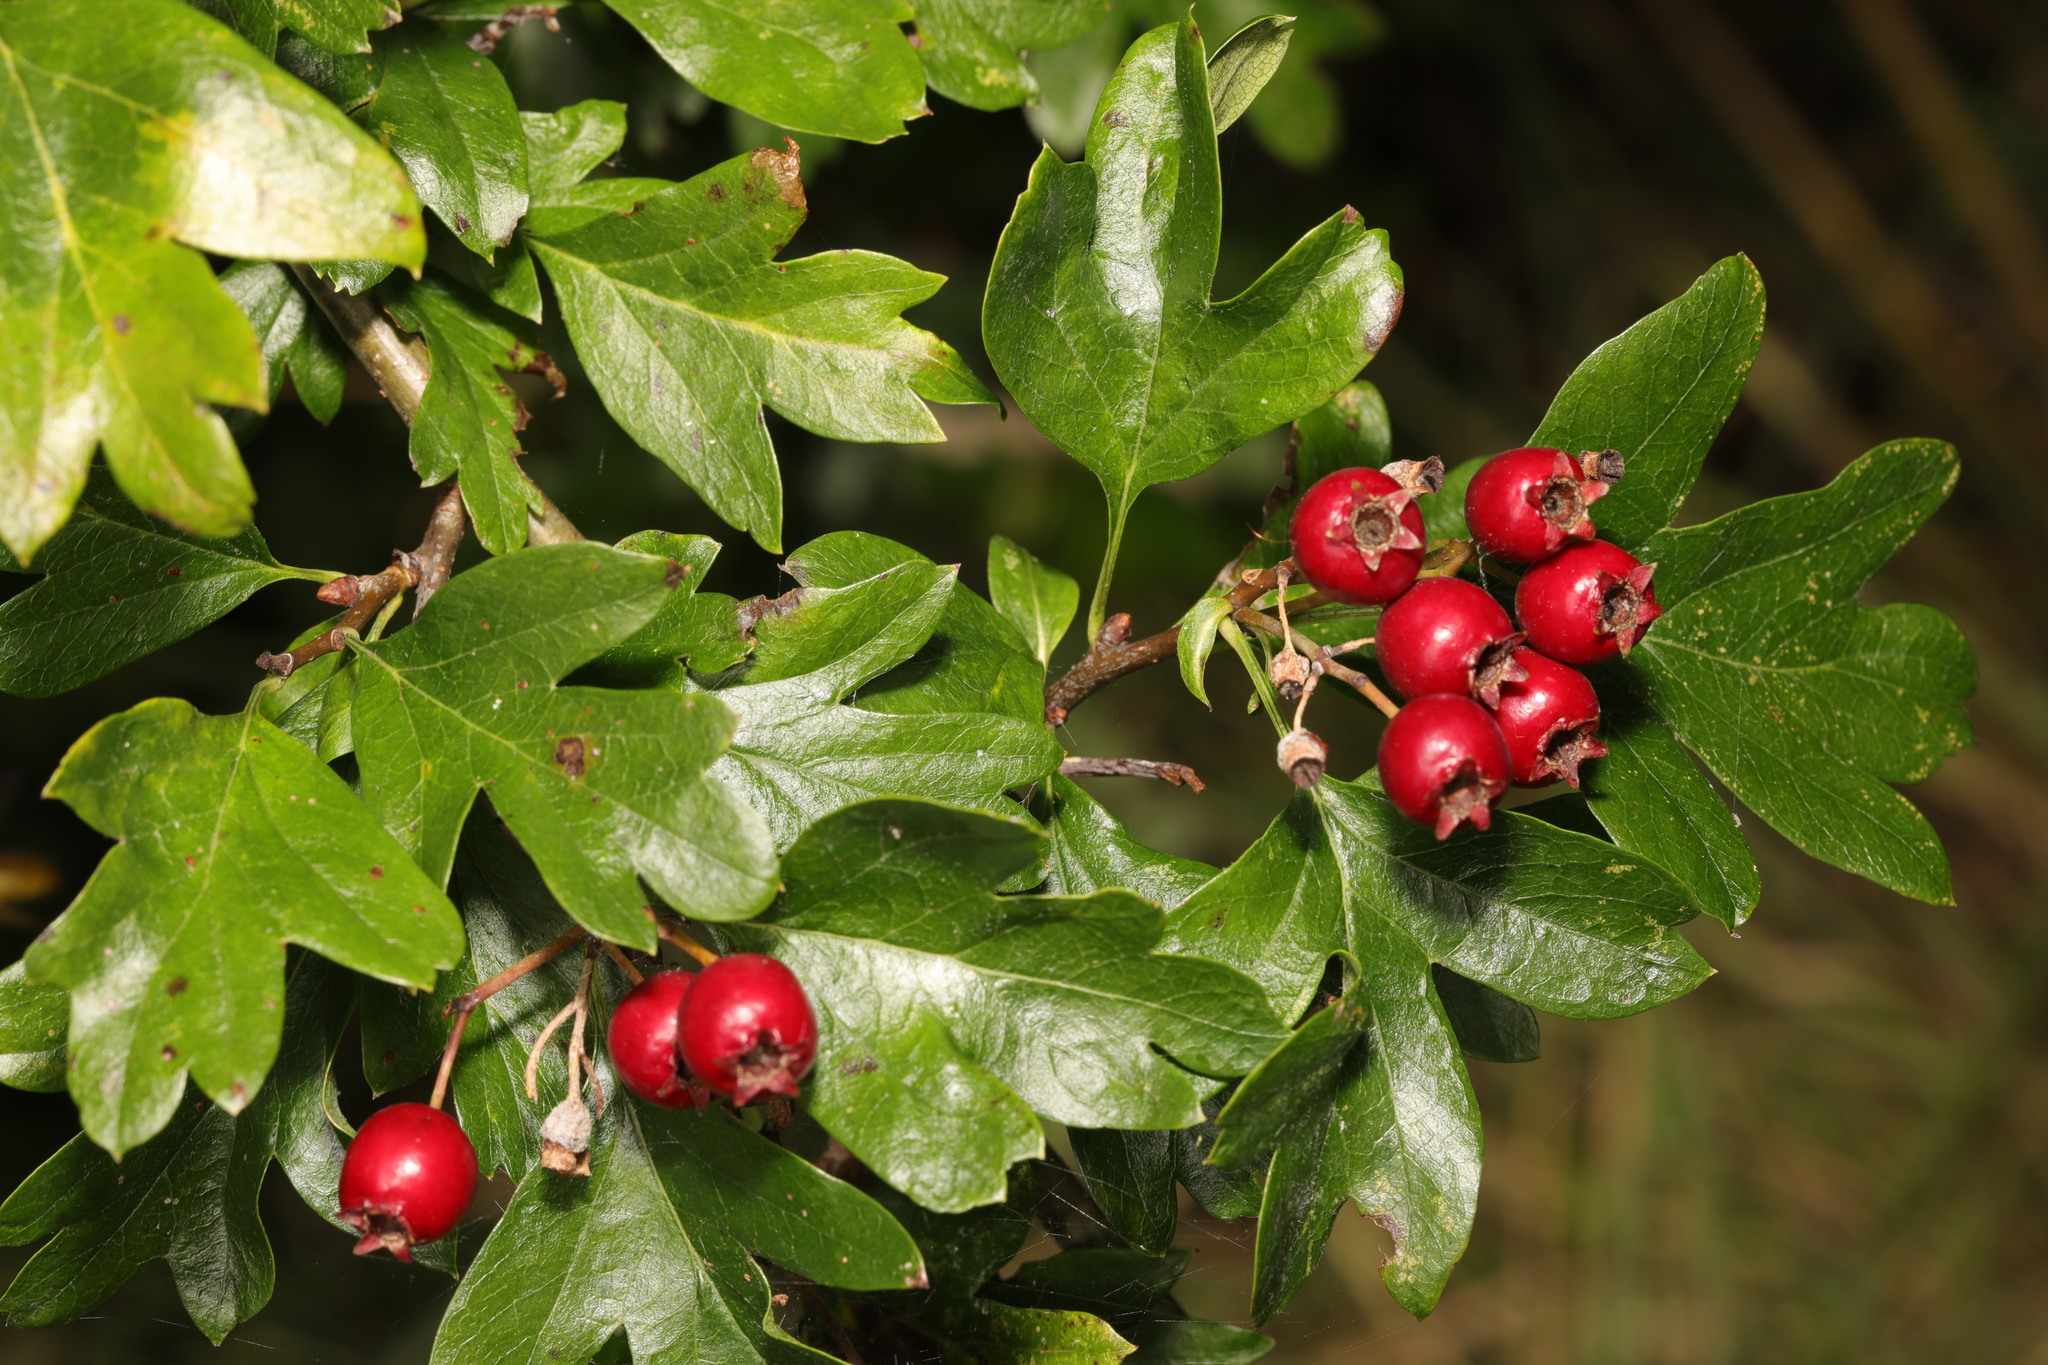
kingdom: Plantae
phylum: Tracheophyta
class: Magnoliopsida
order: Rosales
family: Rosaceae
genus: Crataegus
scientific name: Crataegus monogyna
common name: Hawthorn
